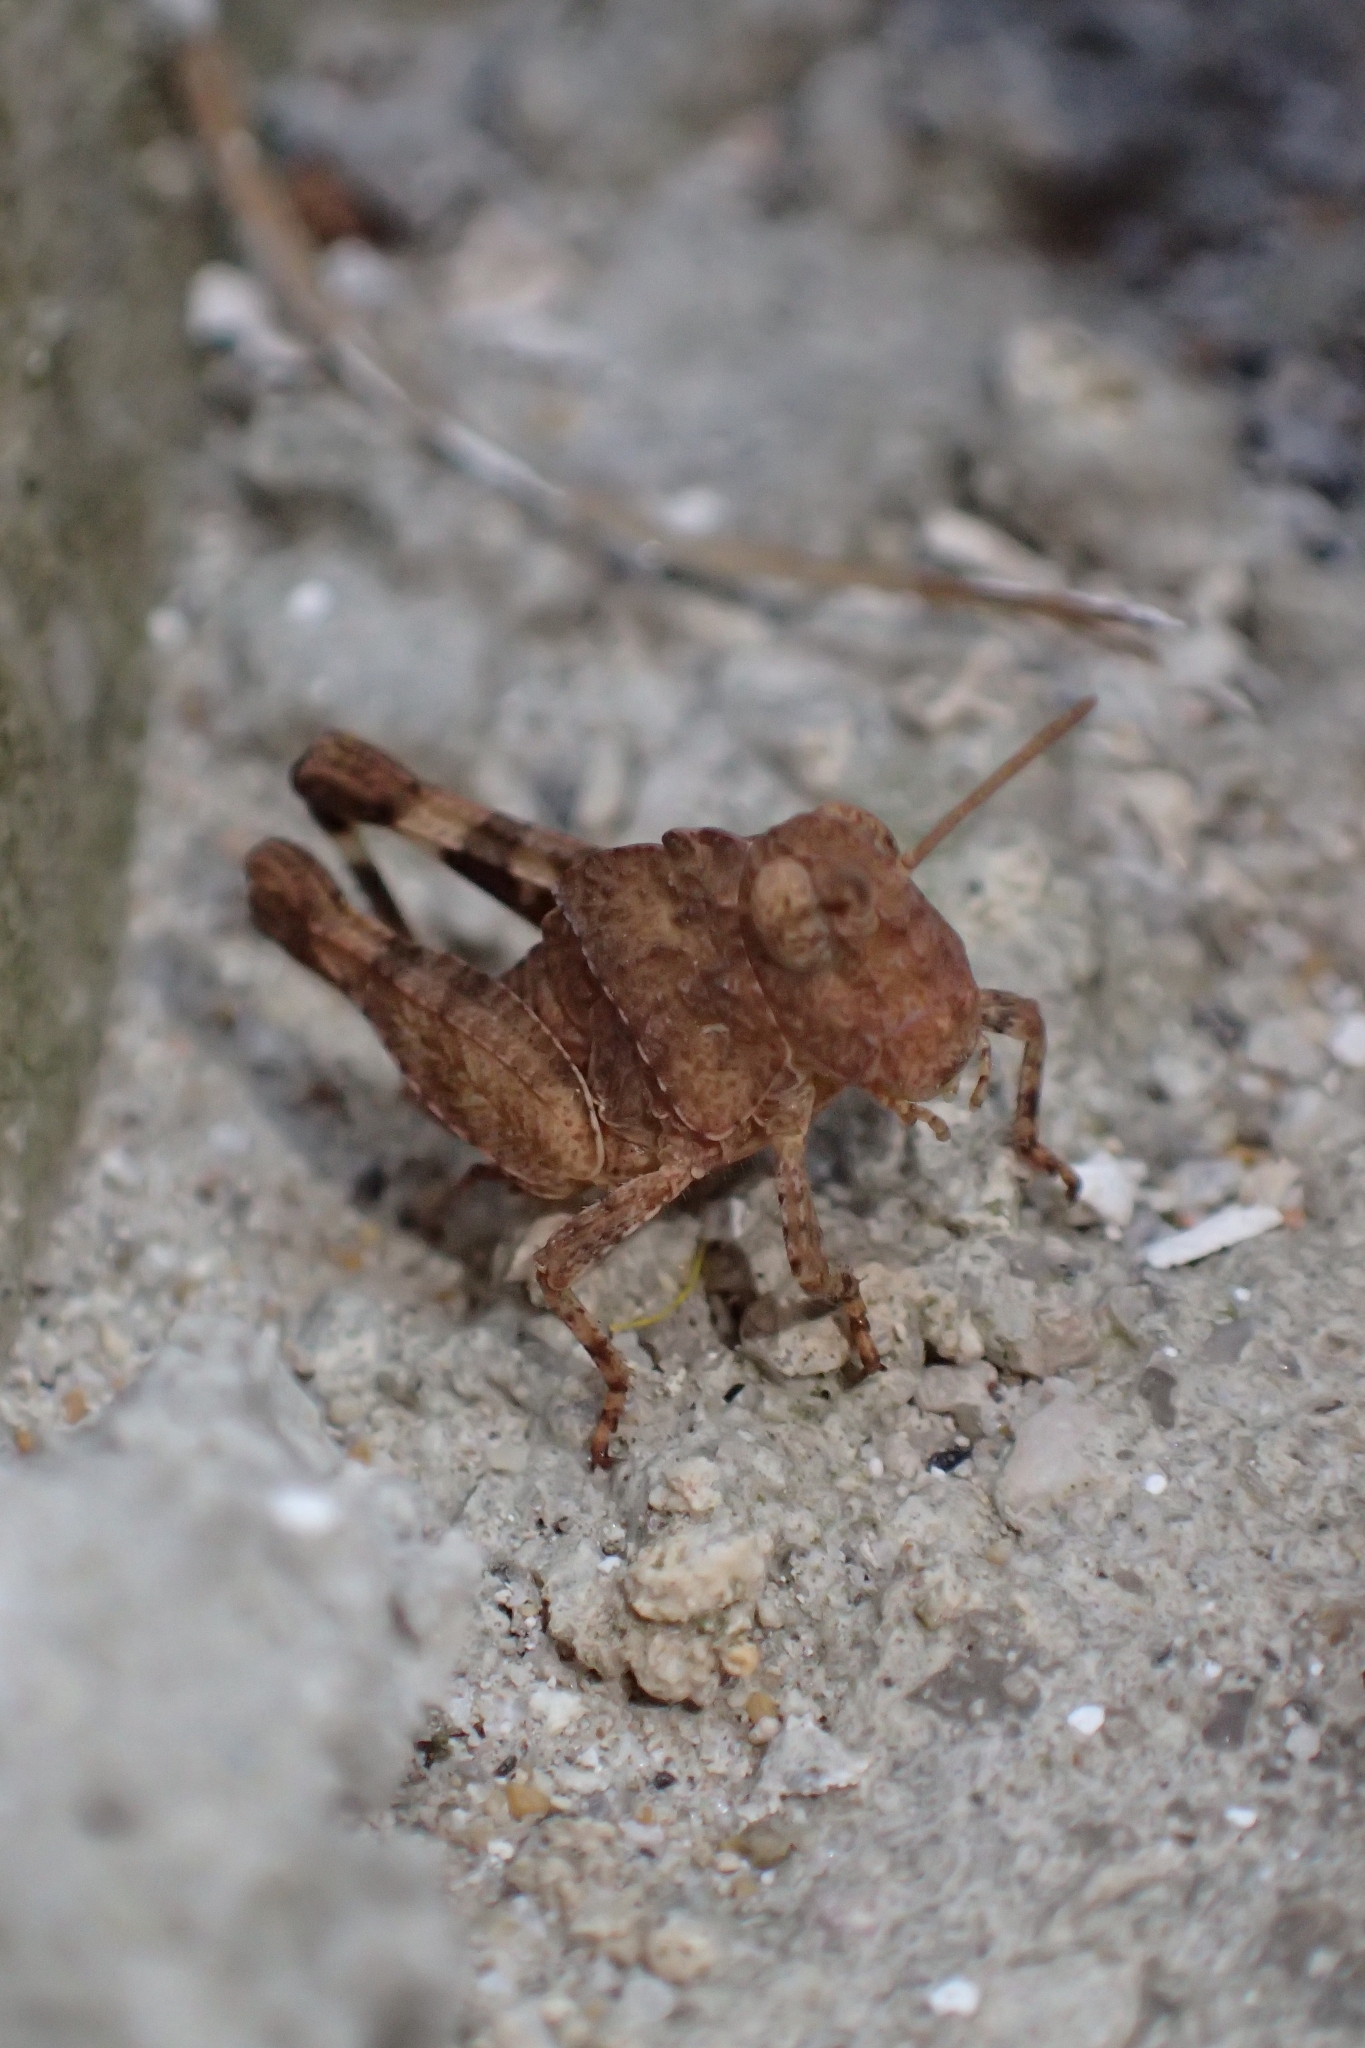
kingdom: Animalia
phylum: Arthropoda
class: Insecta
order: Orthoptera
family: Acrididae
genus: Oedipoda
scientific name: Oedipoda
